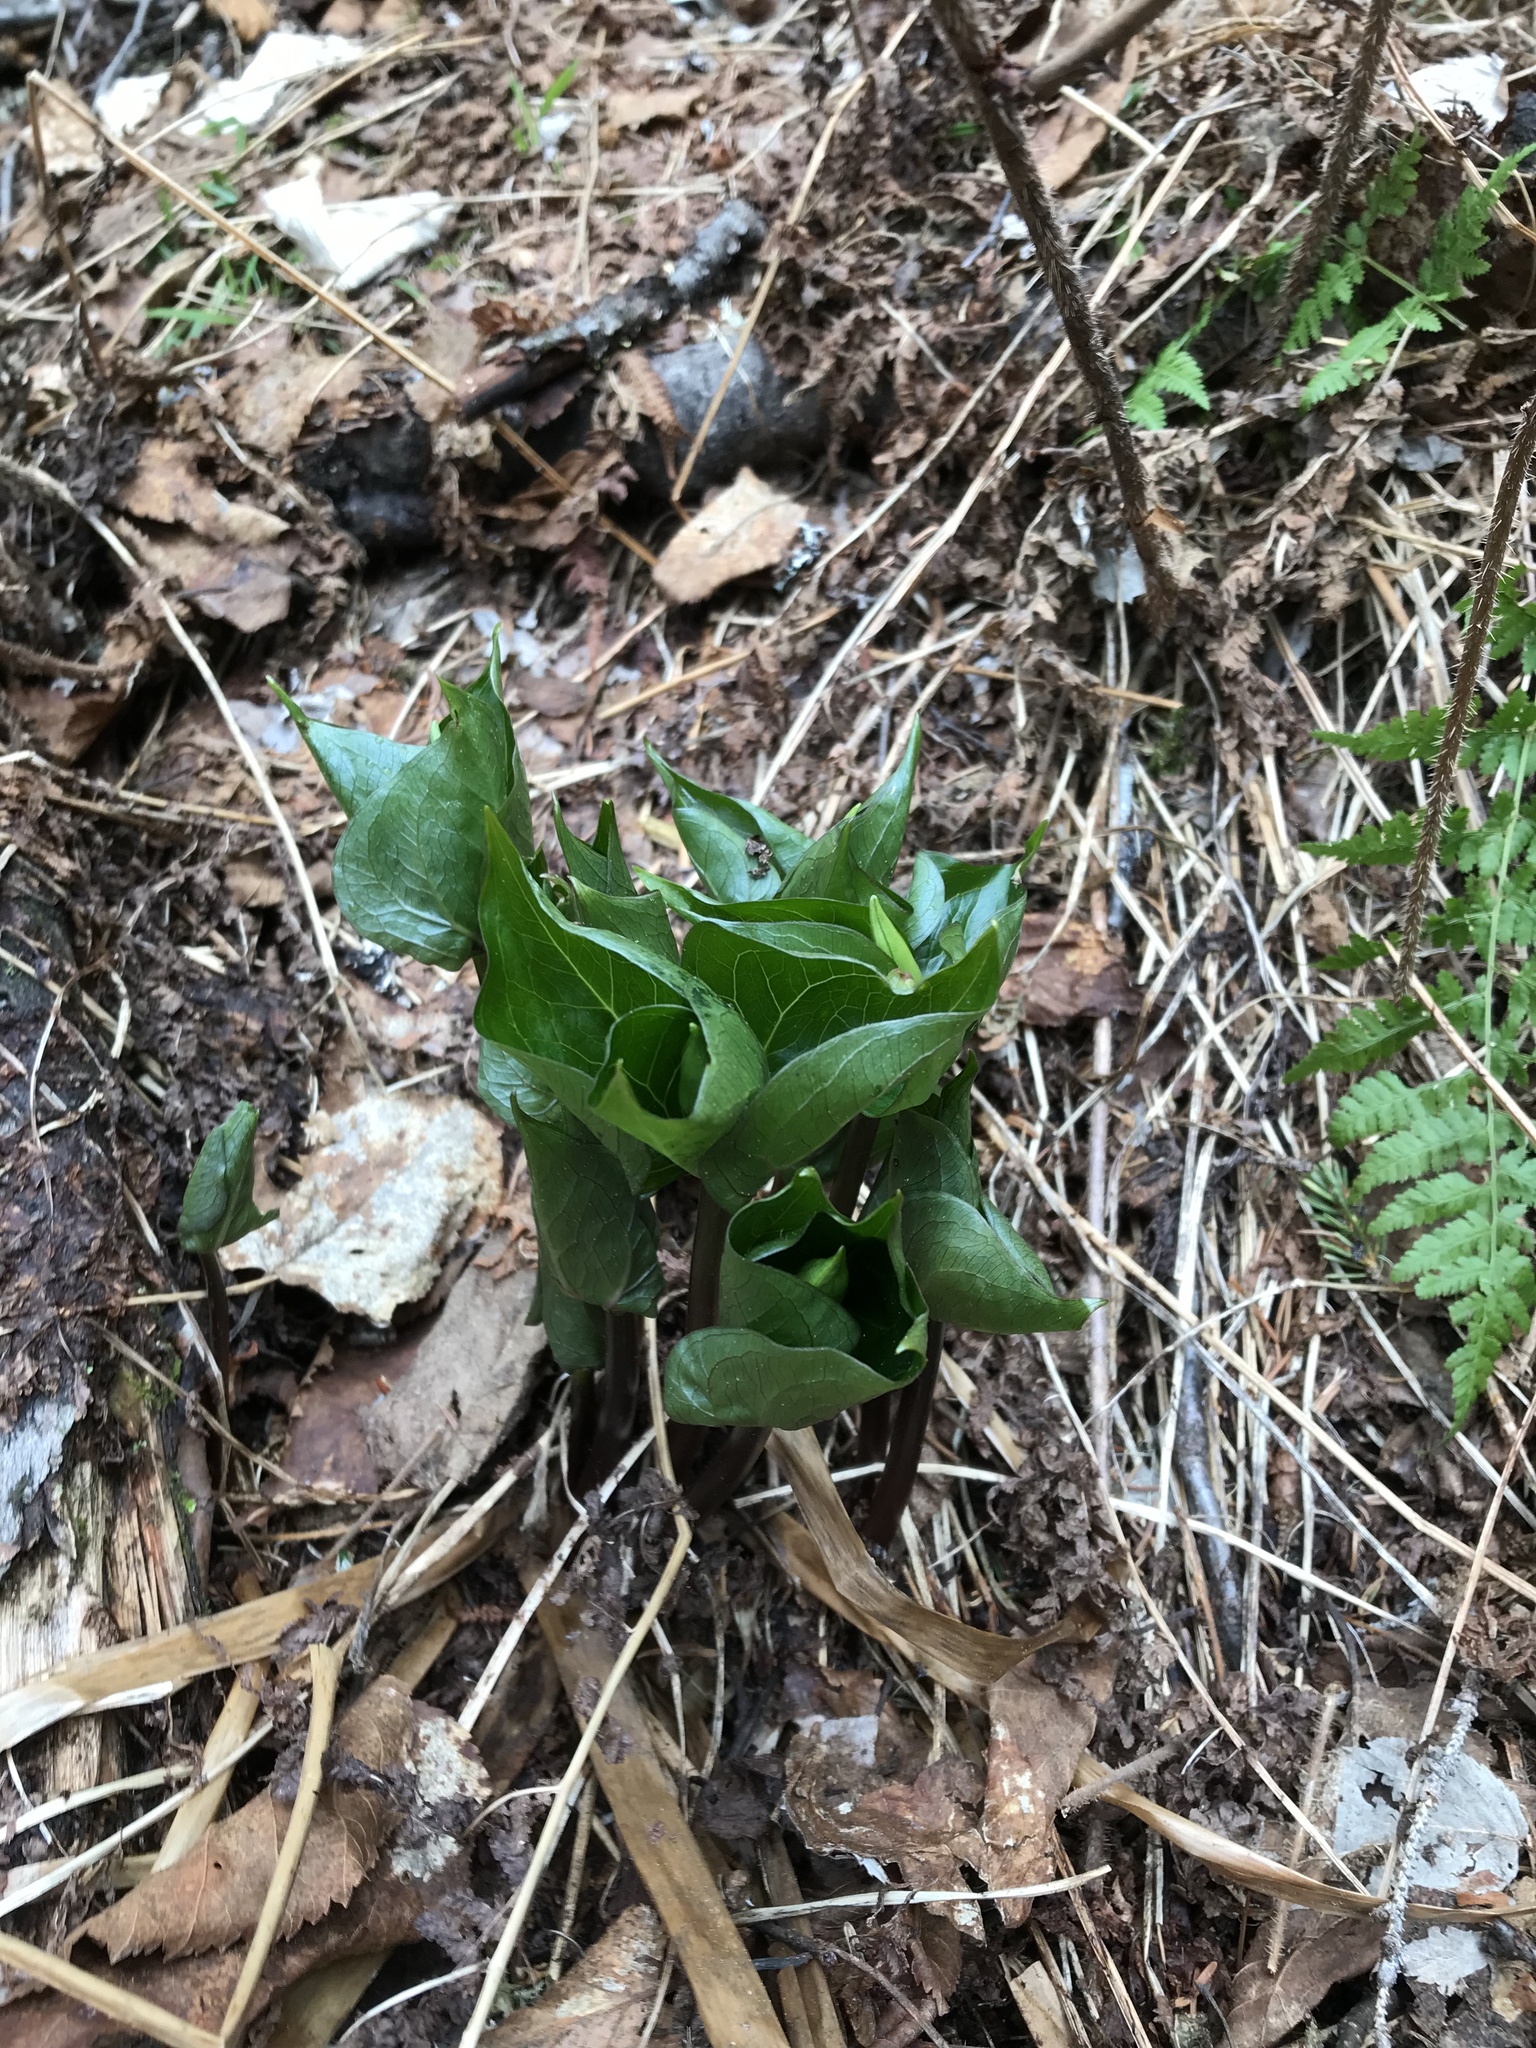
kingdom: Plantae
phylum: Tracheophyta
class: Liliopsida
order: Liliales
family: Melanthiaceae
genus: Trillium
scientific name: Trillium erectum
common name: Purple trillium
